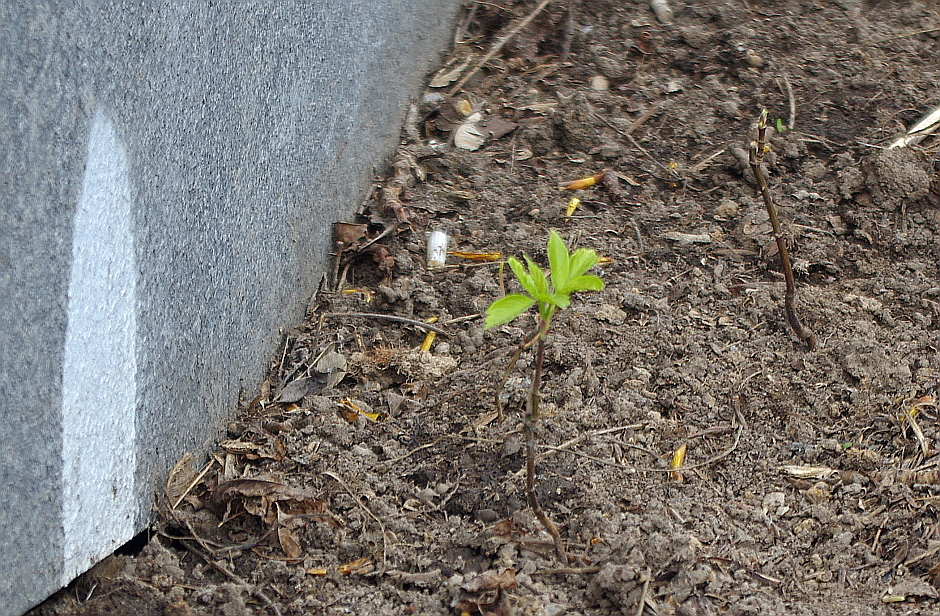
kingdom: Plantae
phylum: Tracheophyta
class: Magnoliopsida
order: Sapindales
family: Sapindaceae
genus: Acer
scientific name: Acer negundo
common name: Ashleaf maple
